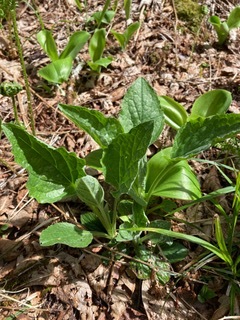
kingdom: Plantae
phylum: Tracheophyta
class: Magnoliopsida
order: Malpighiales
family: Violaceae
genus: Viola
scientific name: Viola sagittata
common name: Arrowhead violet
